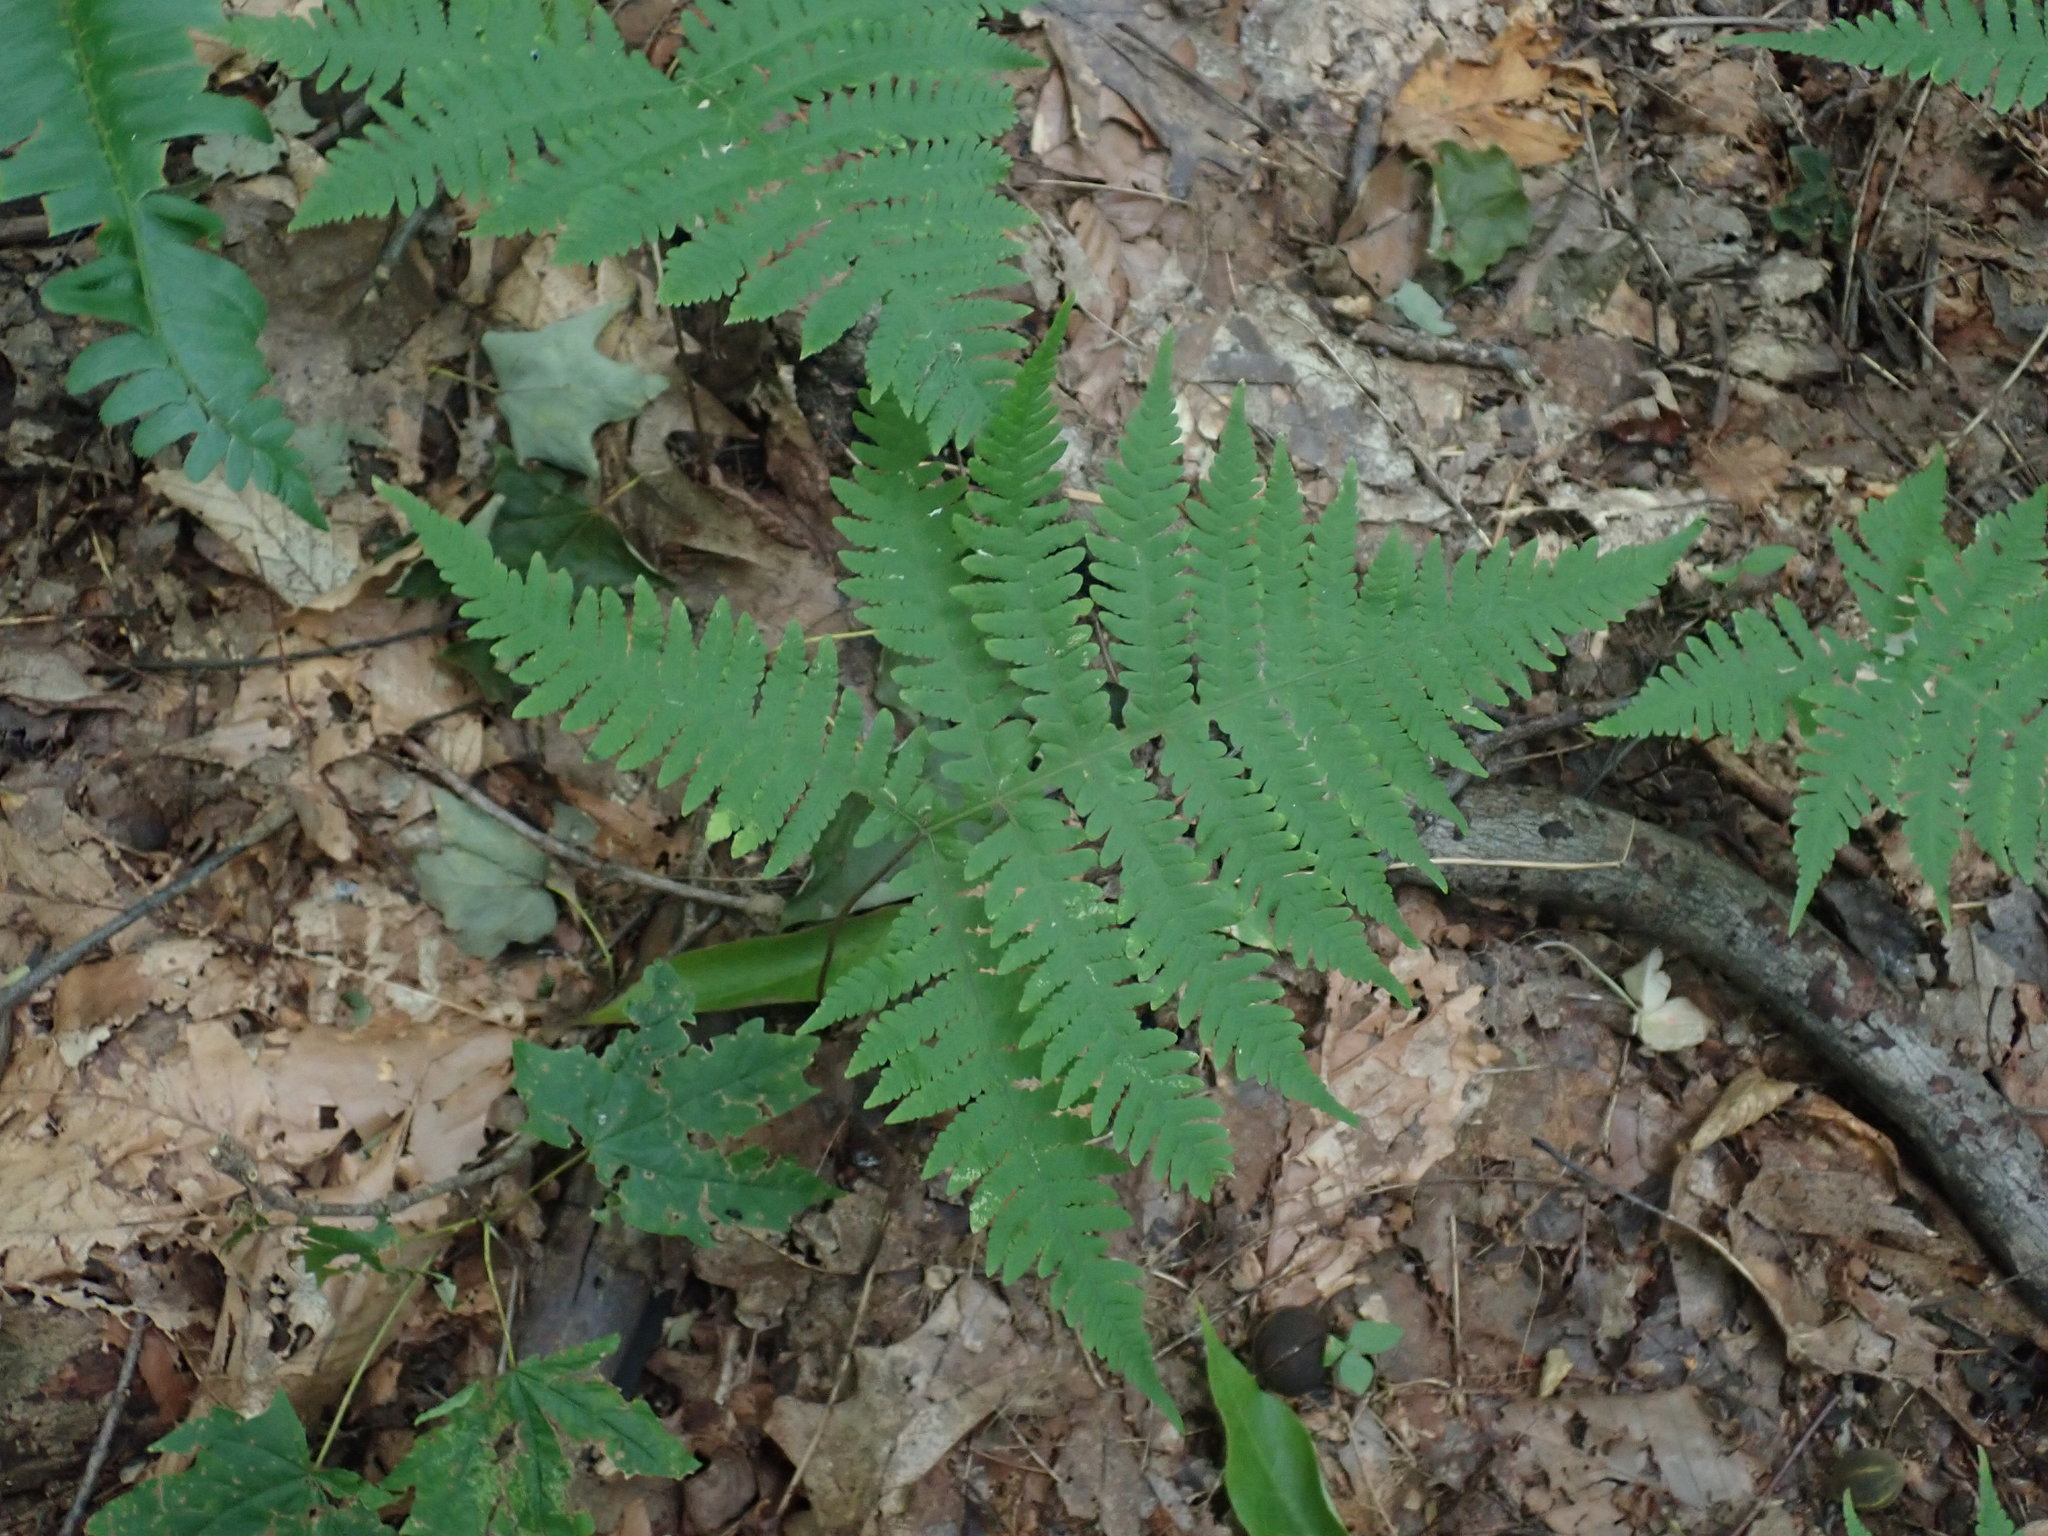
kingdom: Plantae
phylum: Tracheophyta
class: Polypodiopsida
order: Polypodiales
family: Thelypteridaceae
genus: Phegopteris
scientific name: Phegopteris hexagonoptera
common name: Broad beech fern
